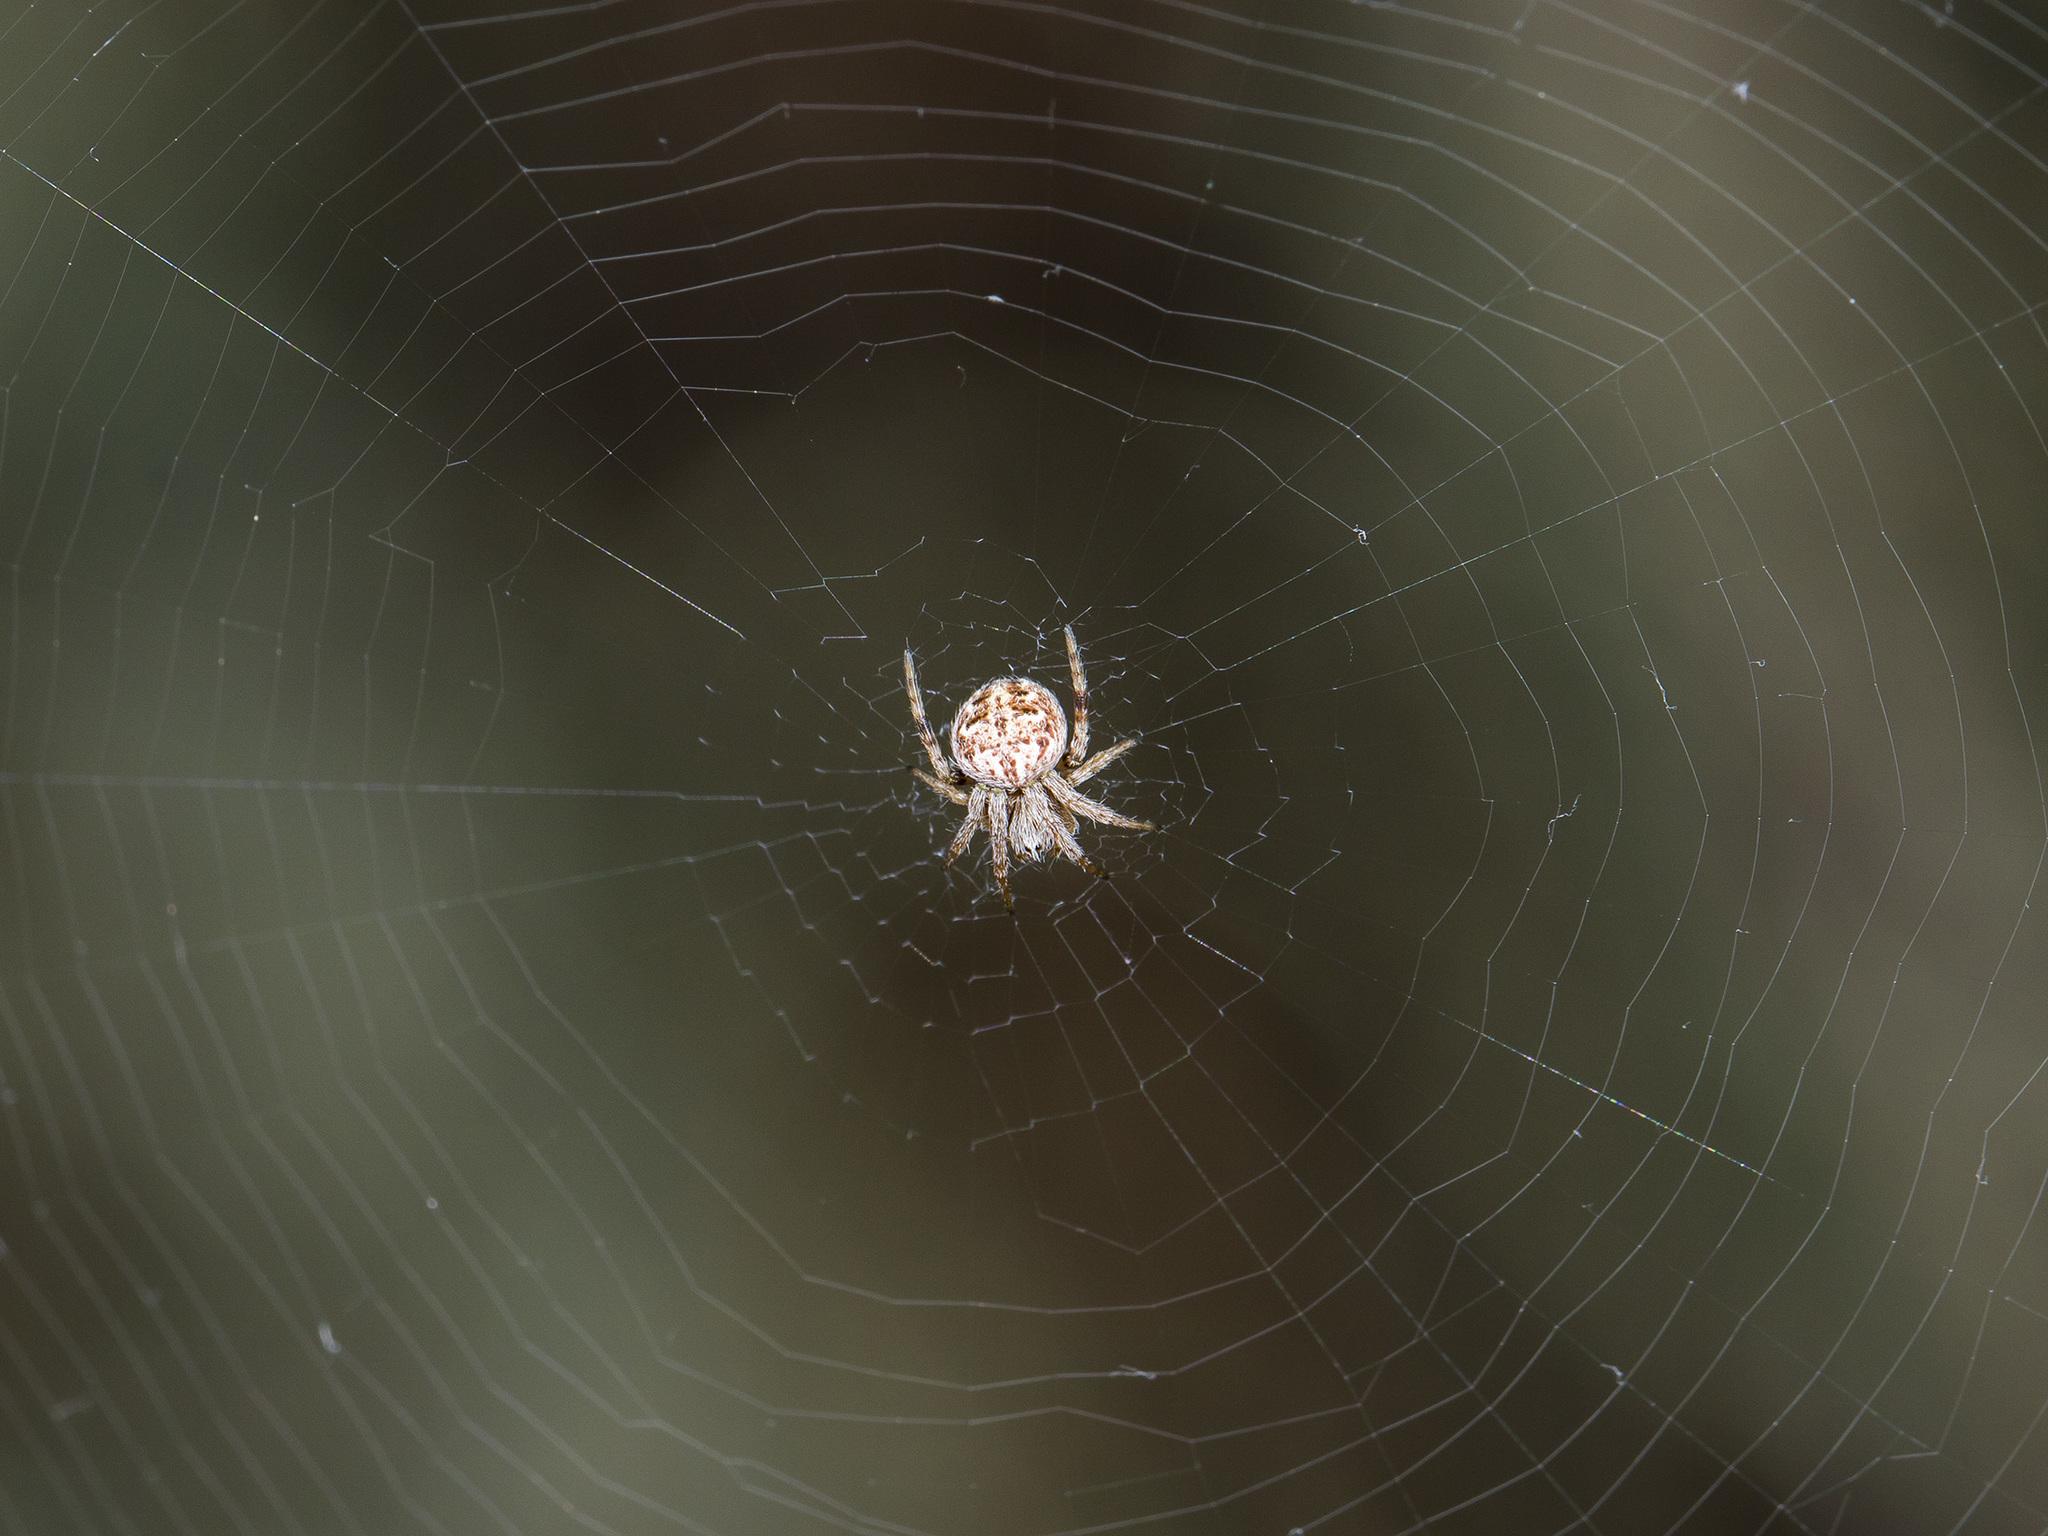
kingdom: Animalia
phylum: Arthropoda
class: Arachnida
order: Araneae
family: Araneidae
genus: Agalenatea
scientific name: Agalenatea redii
